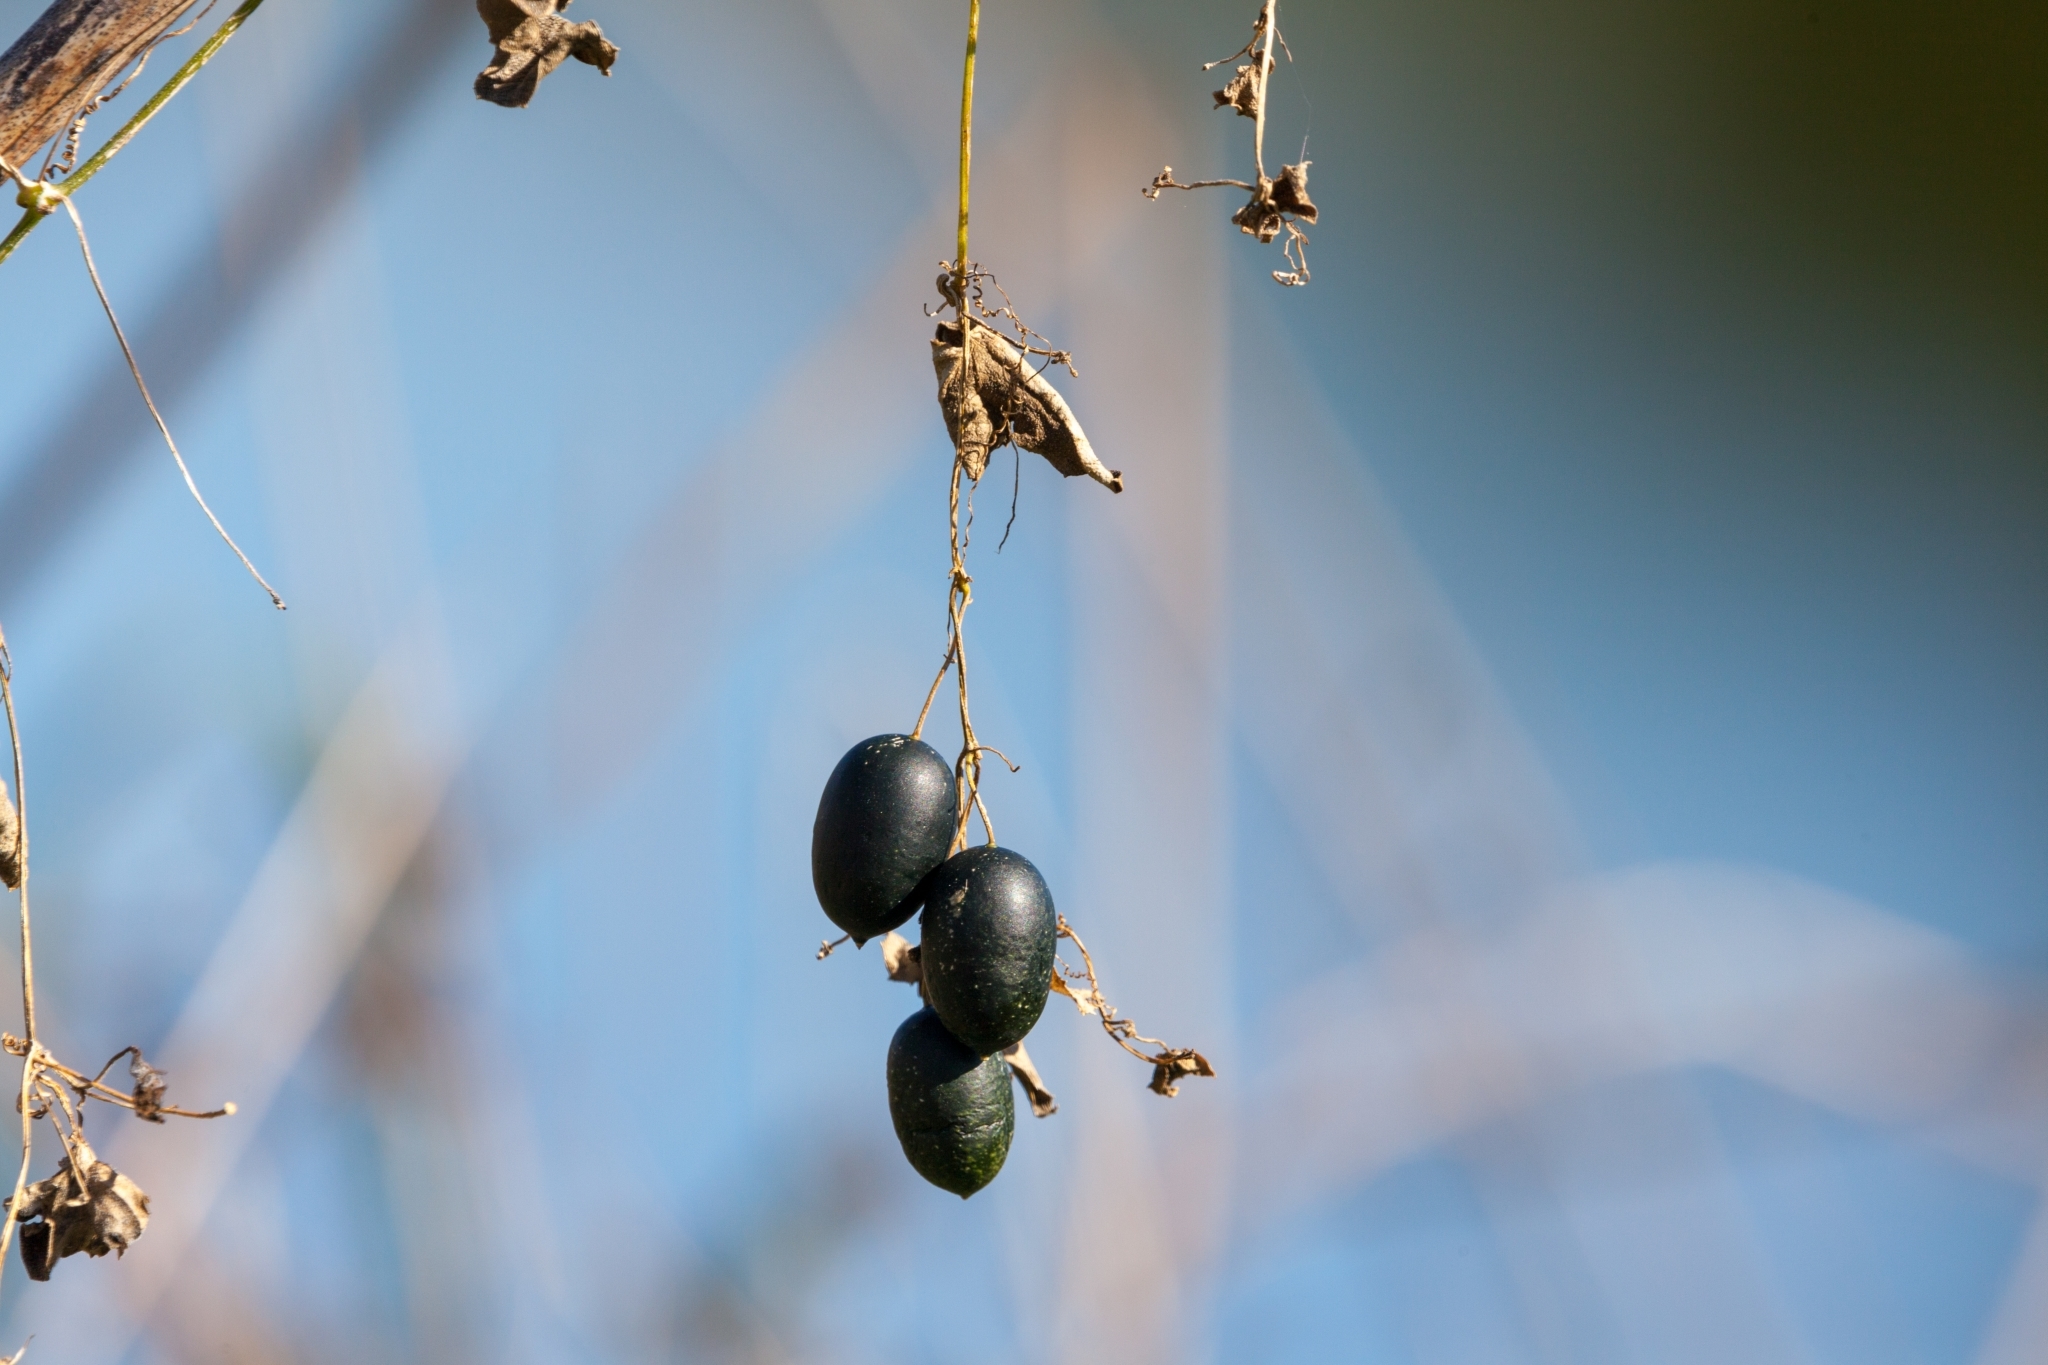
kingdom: Plantae
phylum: Tracheophyta
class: Magnoliopsida
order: Cucurbitales
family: Cucurbitaceae
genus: Melothria
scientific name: Melothria pendula
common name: Creeping-cucumber
